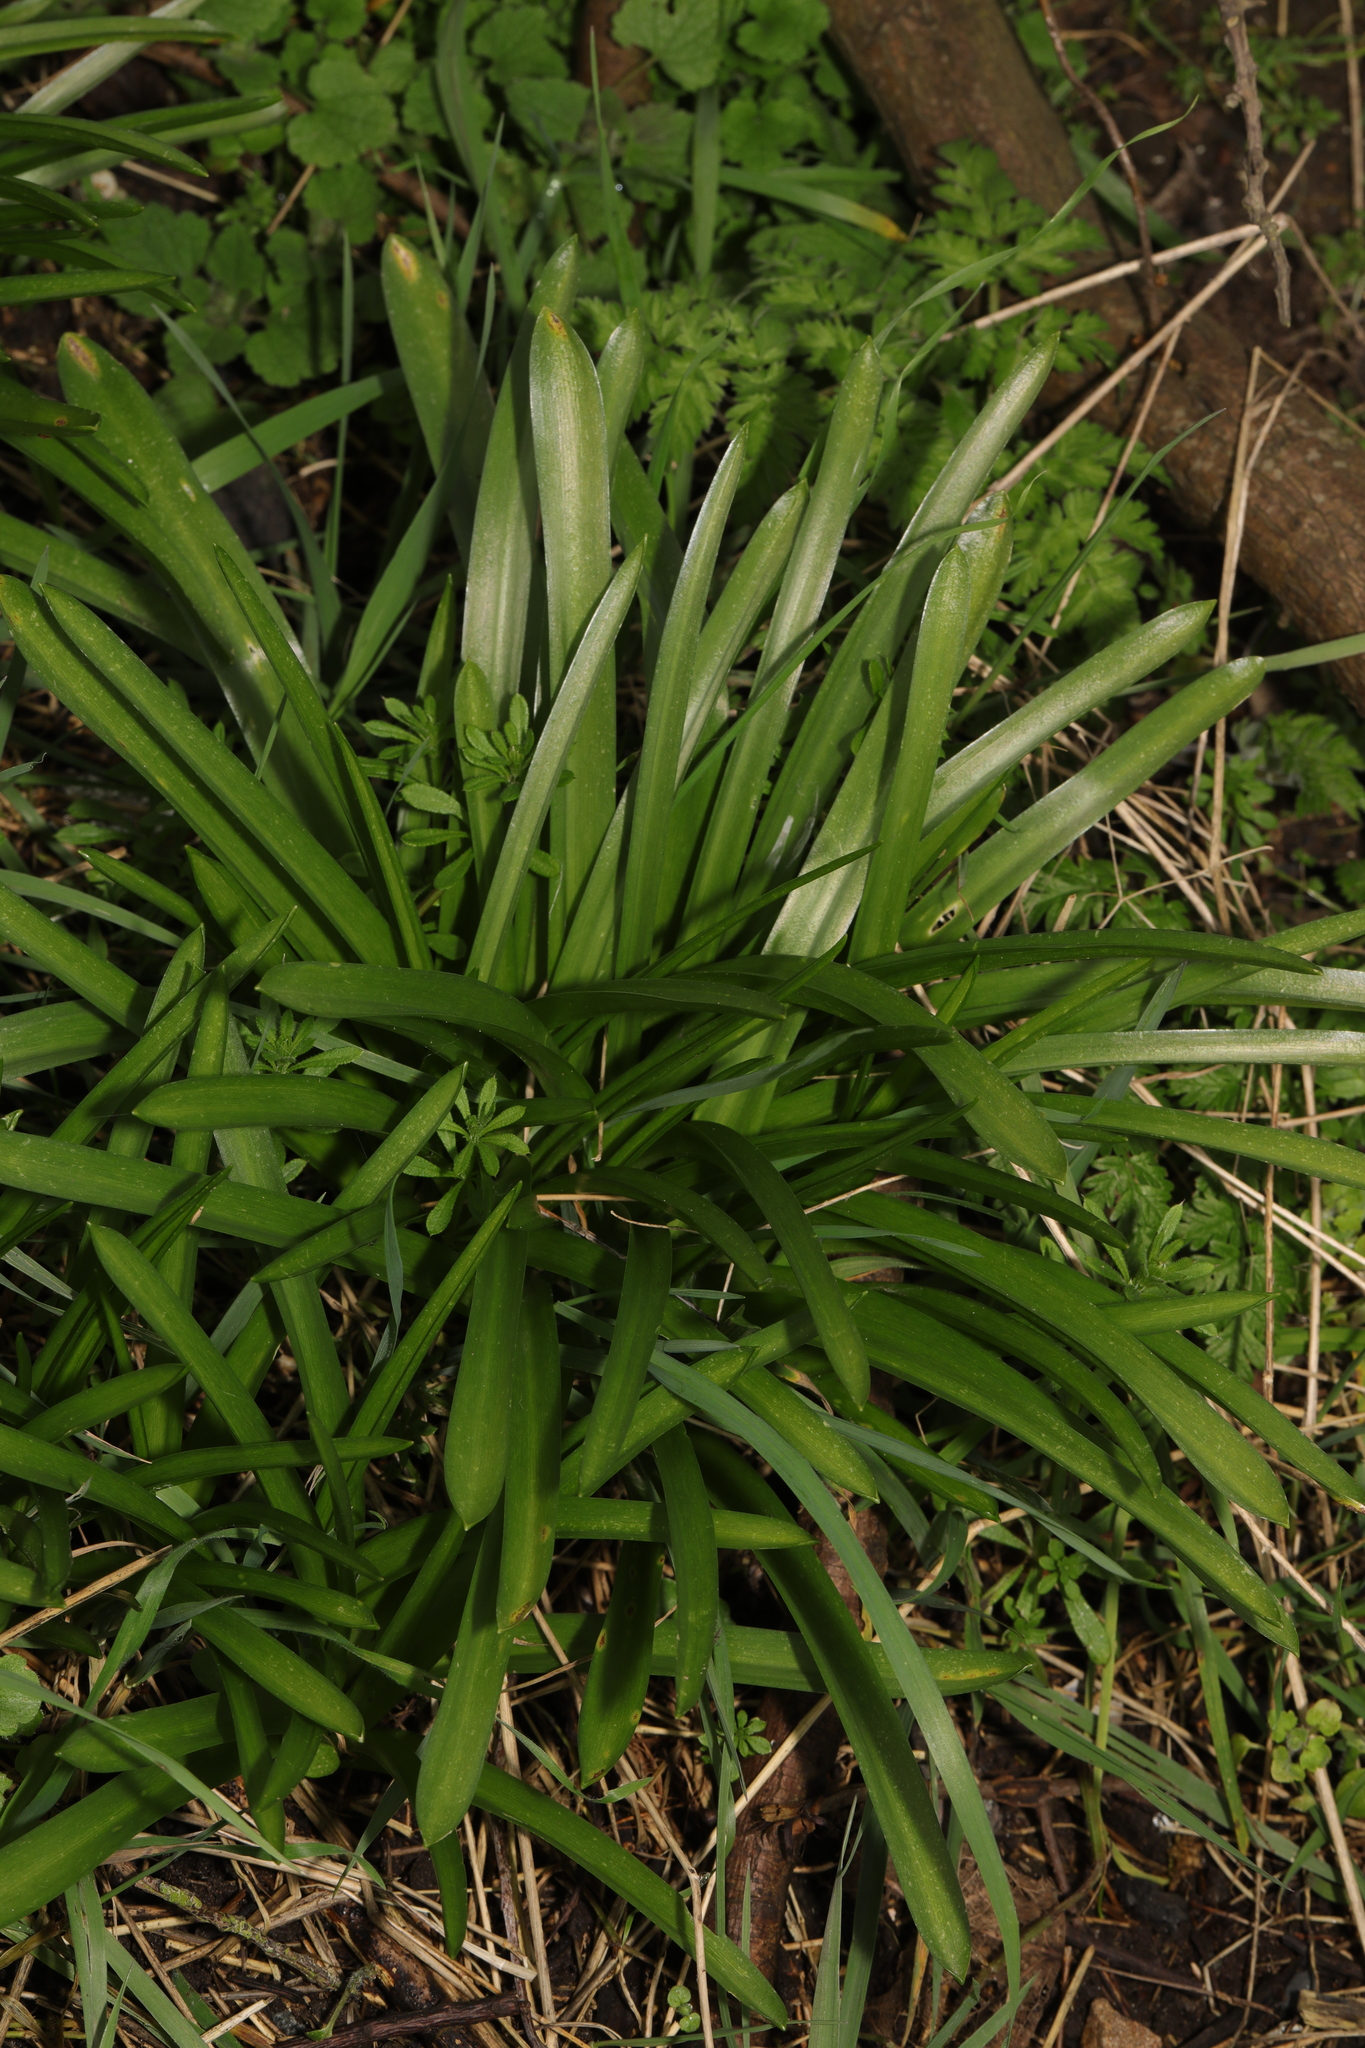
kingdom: Plantae
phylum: Tracheophyta
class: Liliopsida
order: Asparagales
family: Asparagaceae
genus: Hyacinthoides
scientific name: Hyacinthoides massartiana
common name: Hyacinthoides
